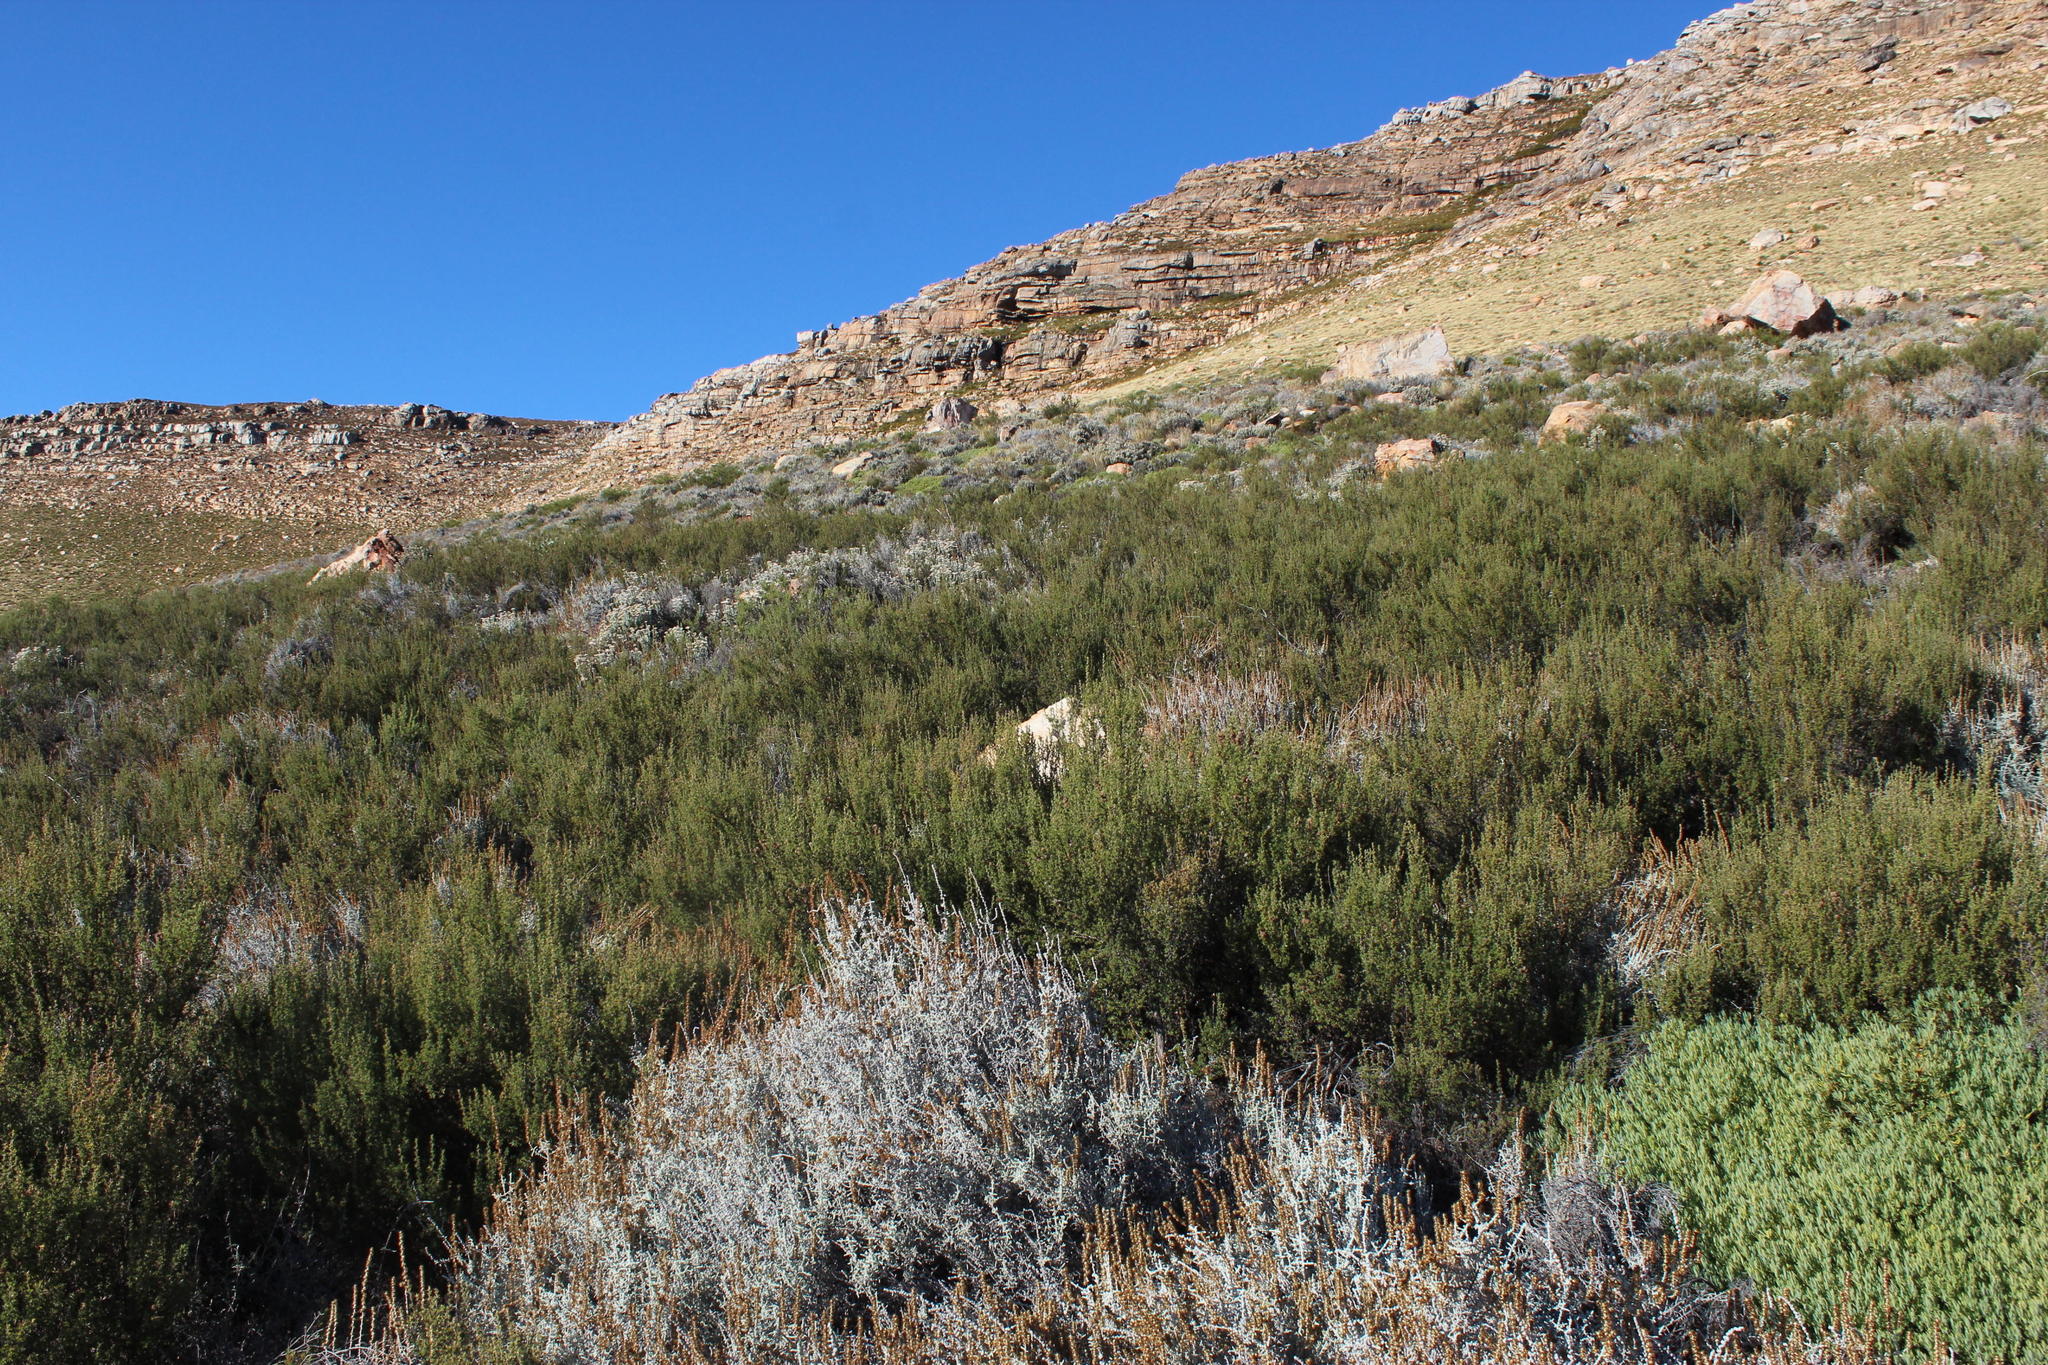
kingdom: Plantae
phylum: Tracheophyta
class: Magnoliopsida
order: Rosales
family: Rosaceae
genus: Cliffortia
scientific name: Cliffortia ruscifolia
